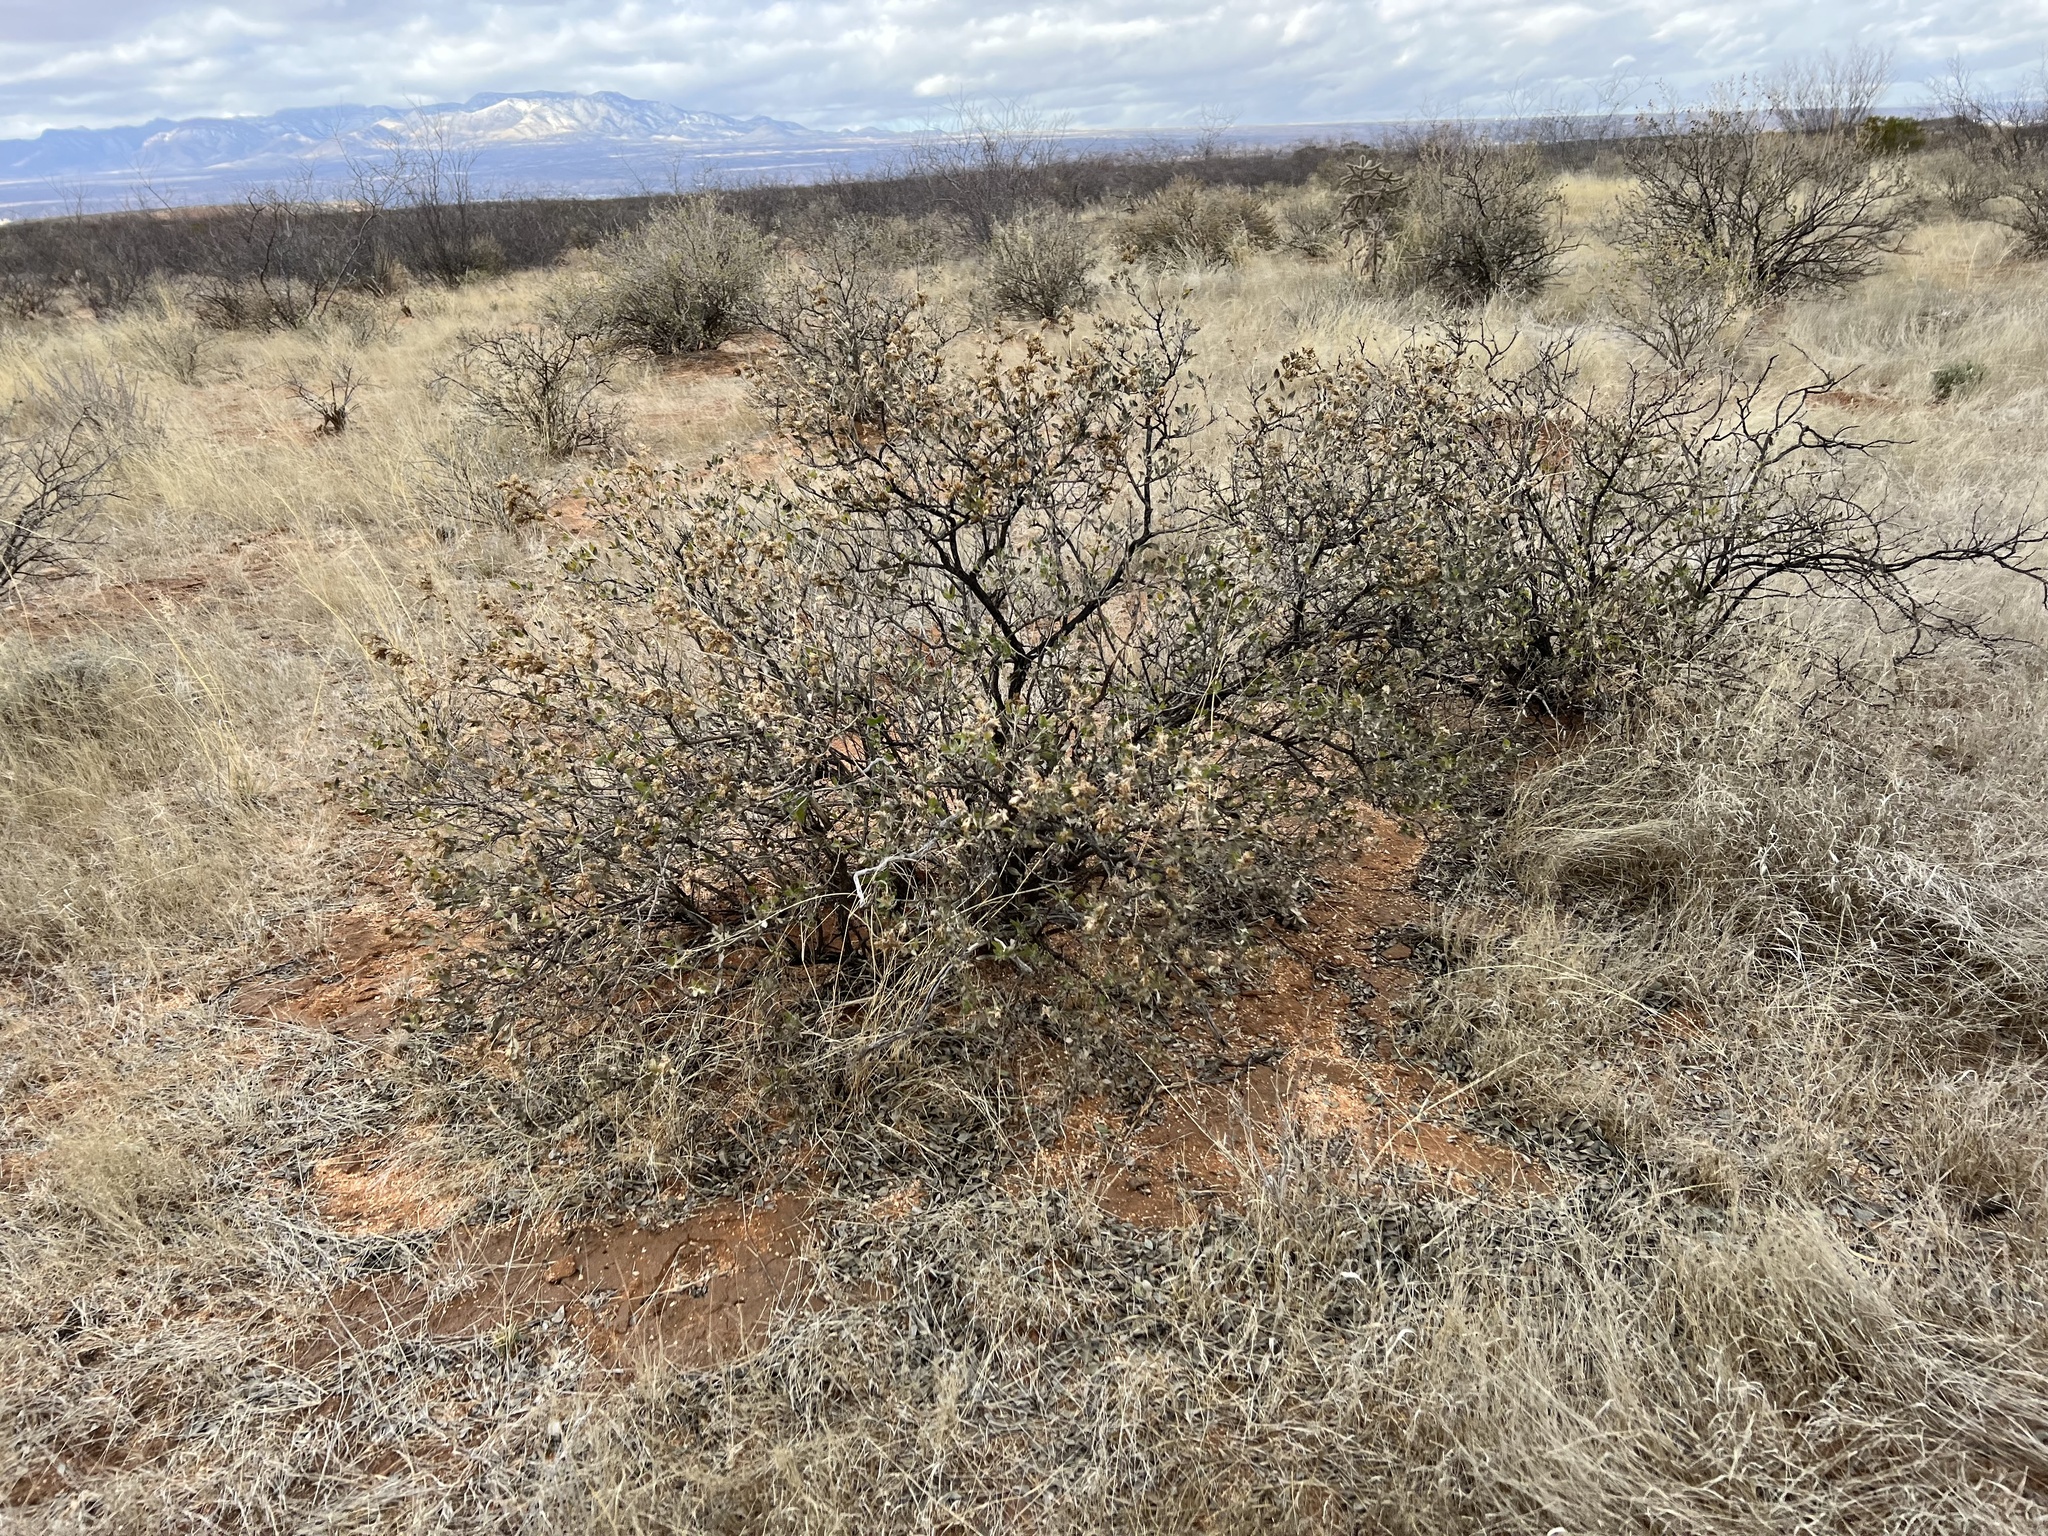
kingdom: Plantae
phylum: Tracheophyta
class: Magnoliopsida
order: Asterales
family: Asteraceae
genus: Flourensia
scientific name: Flourensia cernua
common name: Varnishbush
